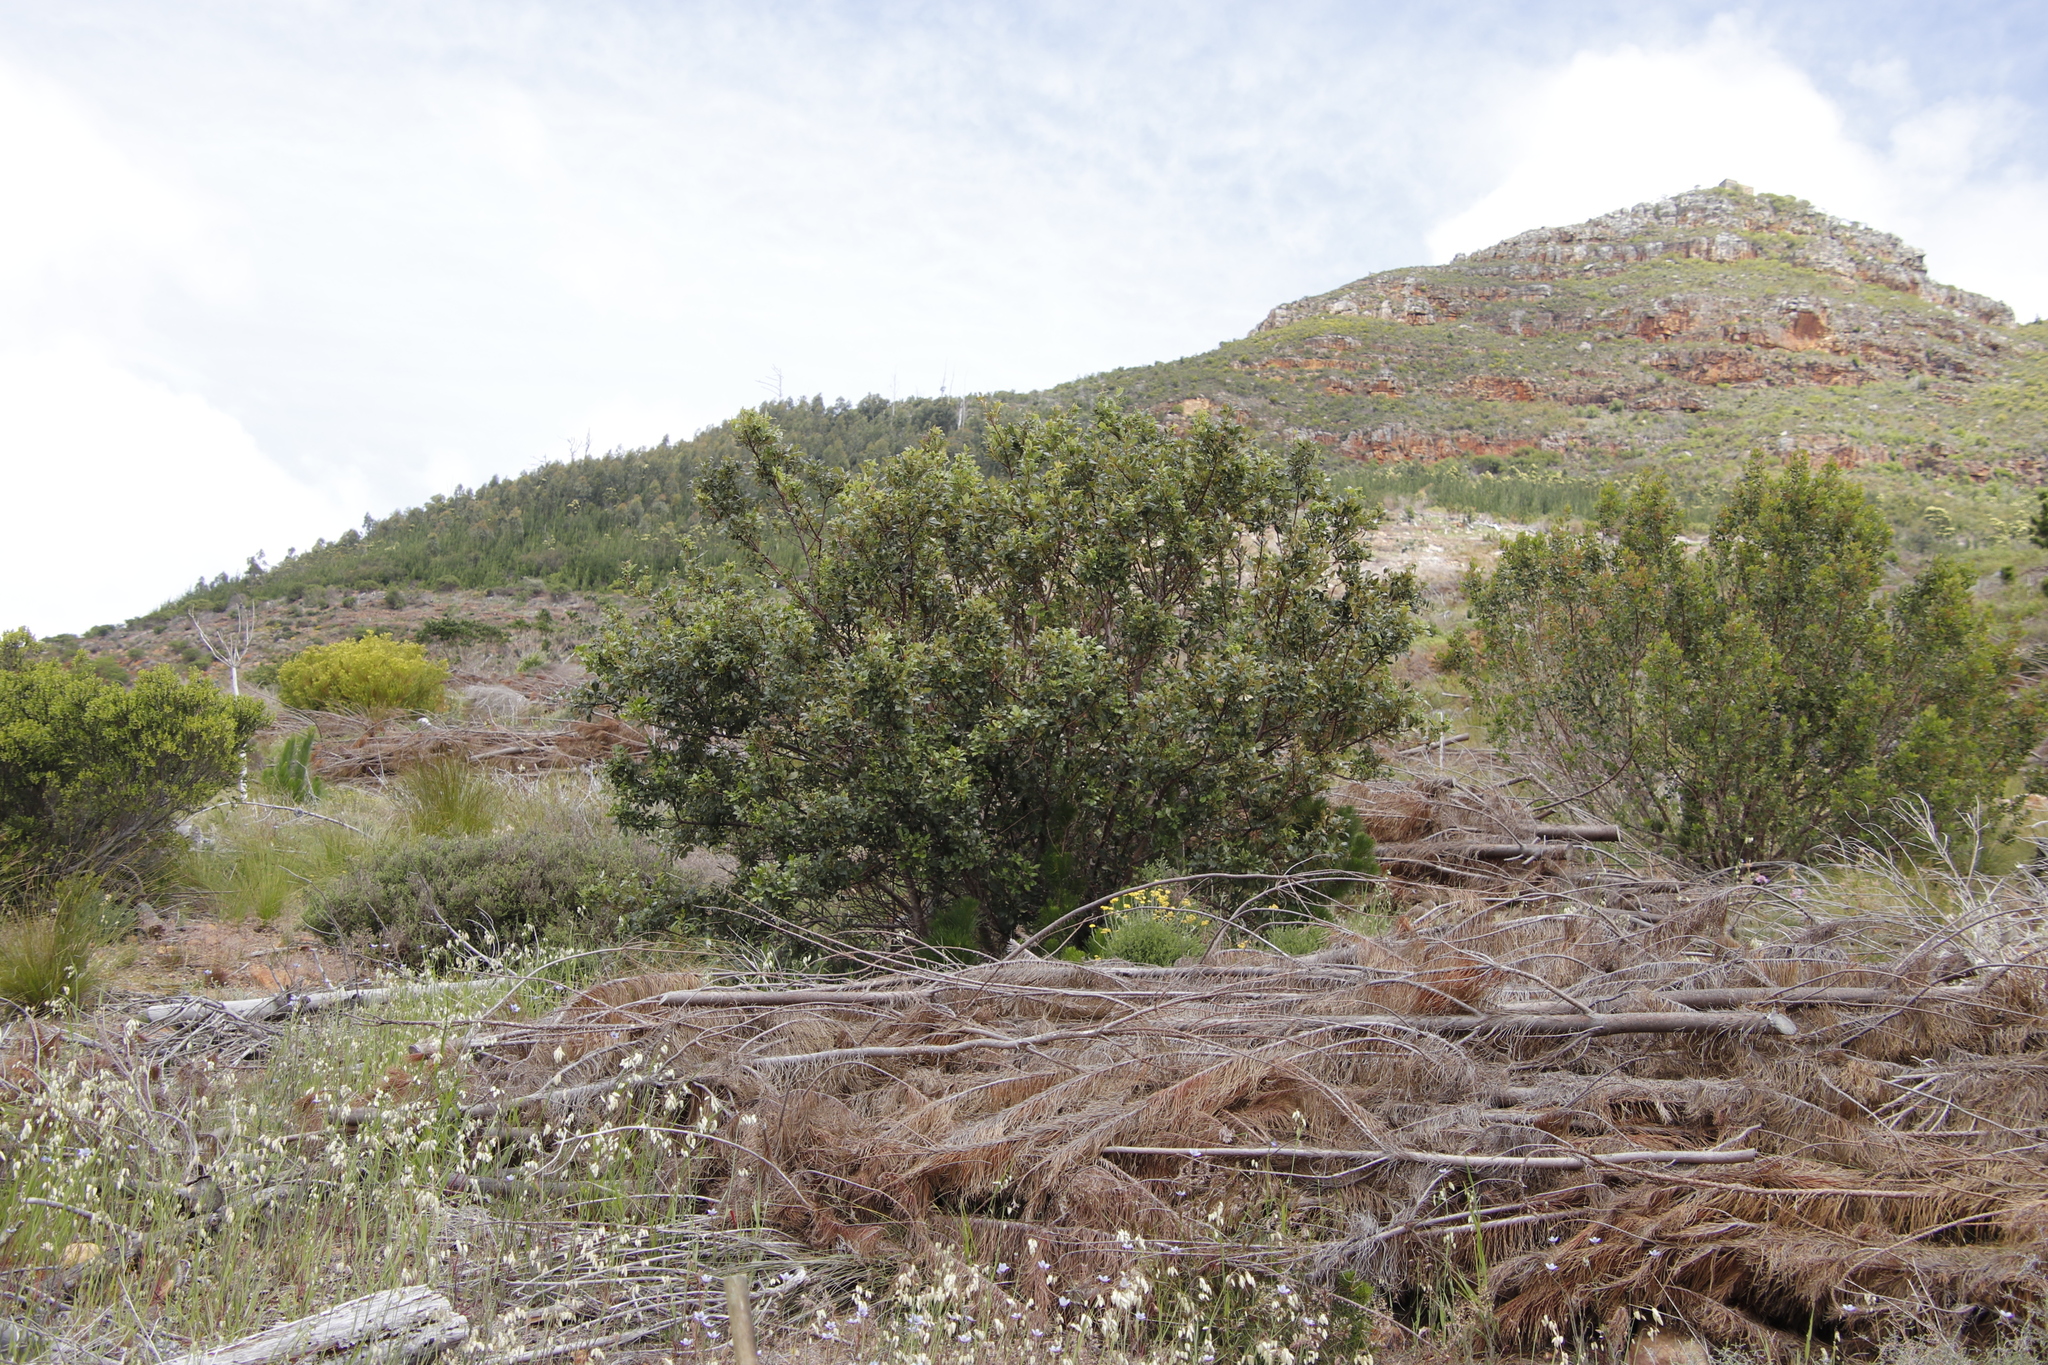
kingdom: Plantae
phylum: Tracheophyta
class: Magnoliopsida
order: Sapindales
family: Anacardiaceae
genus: Searsia
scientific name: Searsia tomentosa
